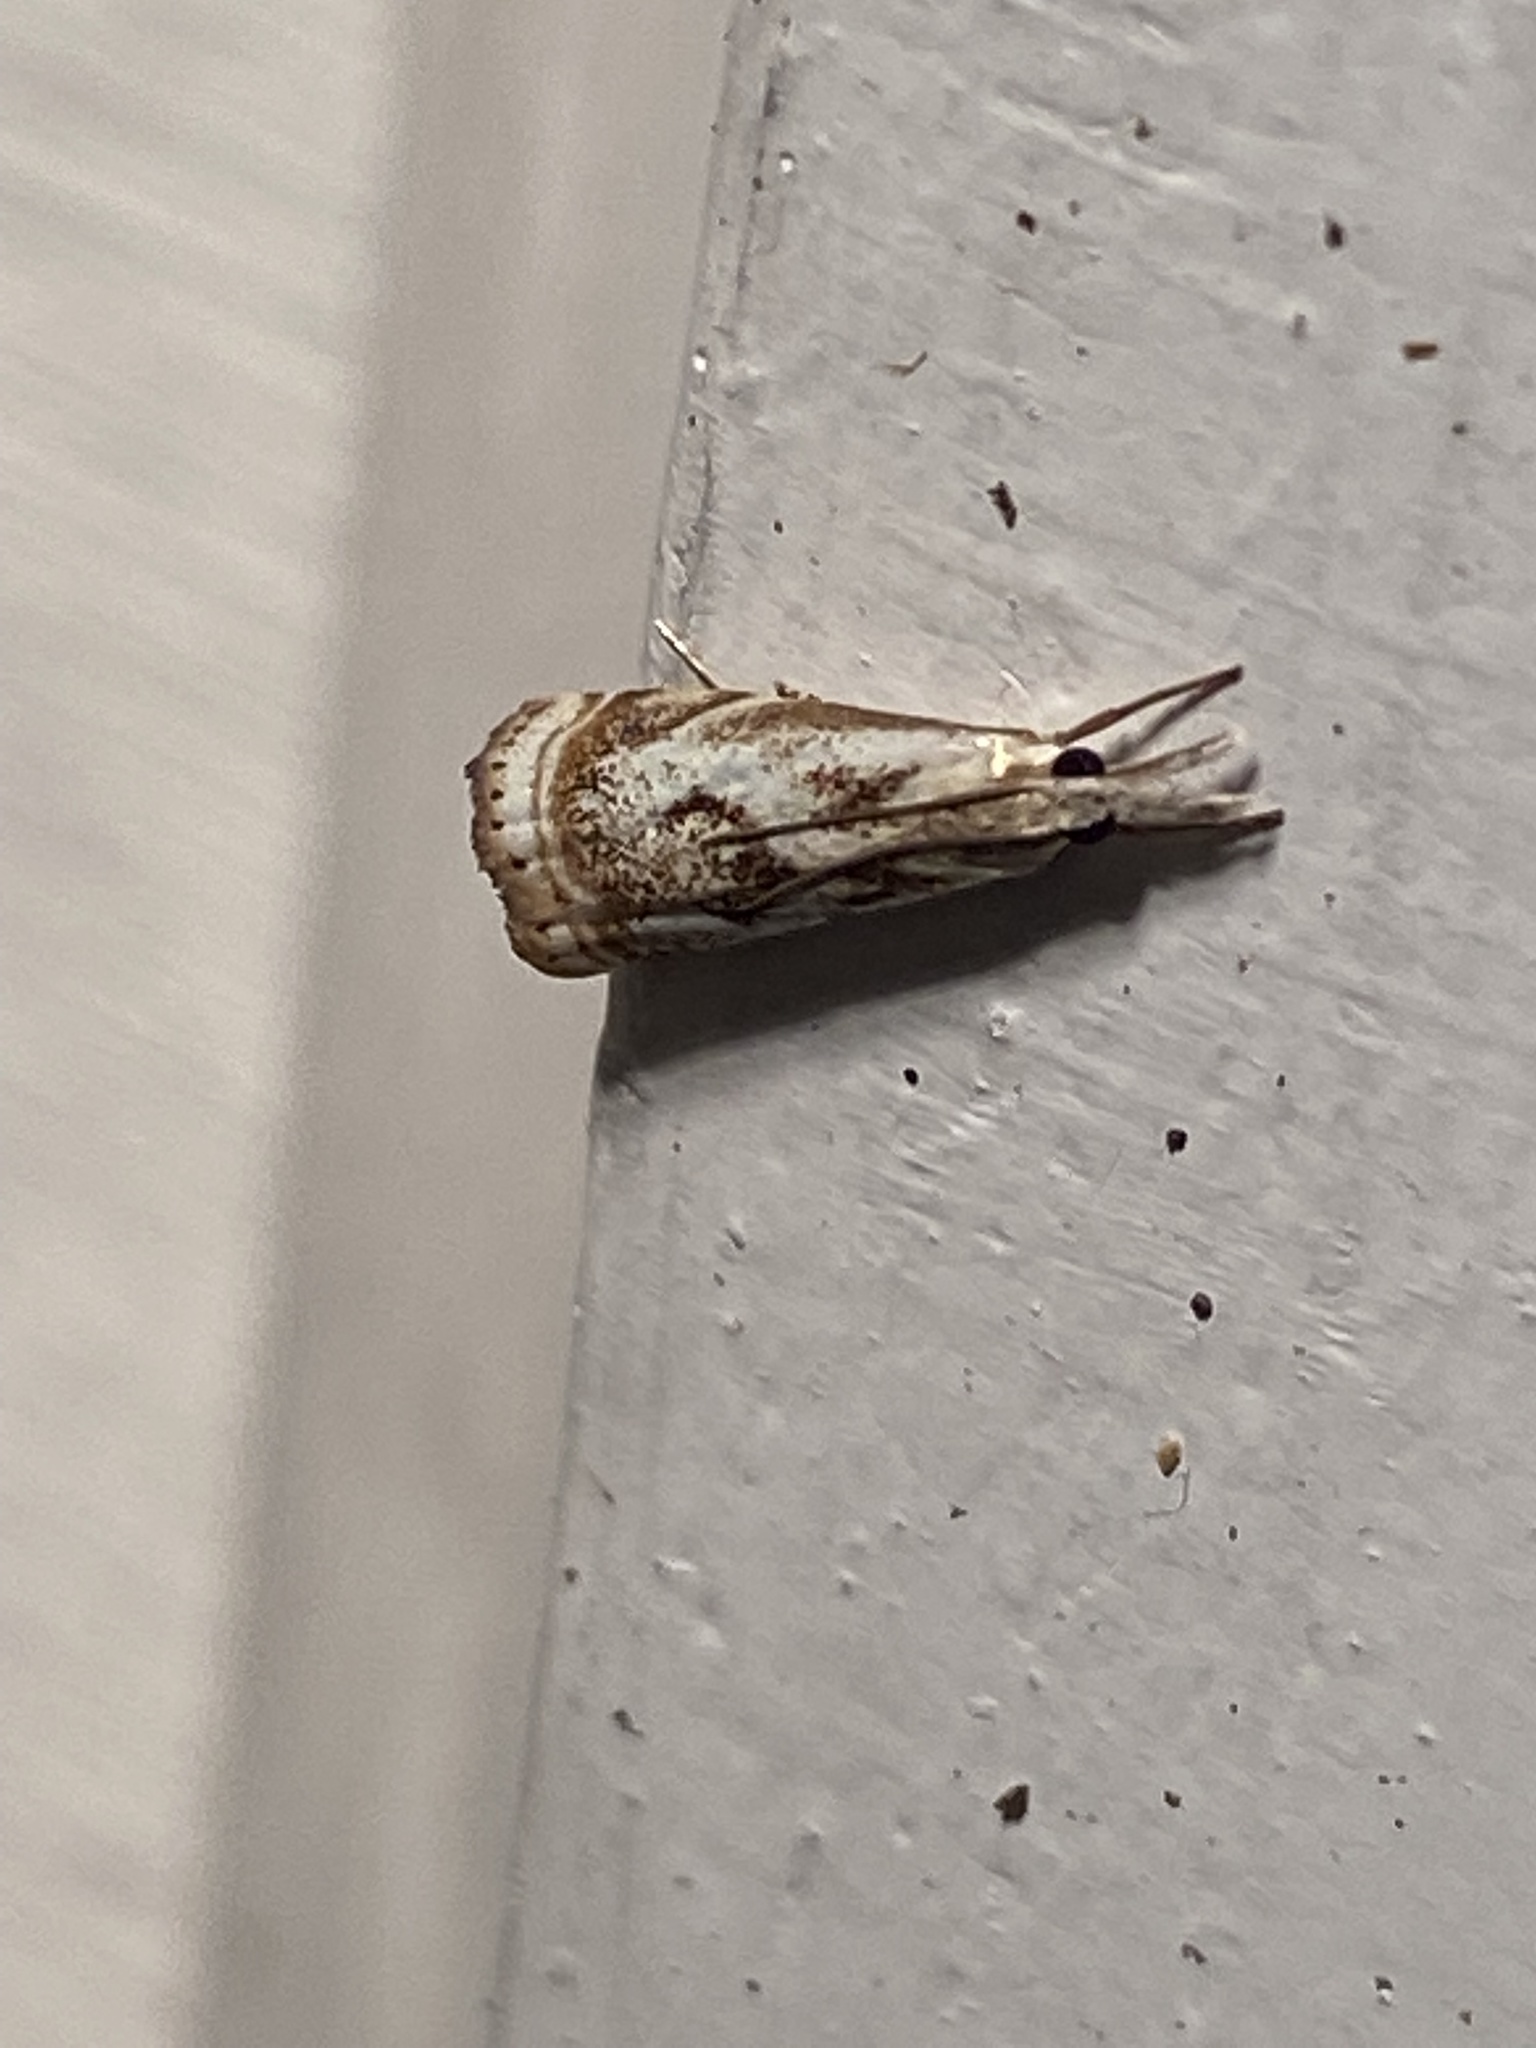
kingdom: Animalia
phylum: Arthropoda
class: Insecta
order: Lepidoptera
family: Crambidae
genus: Microcrambus
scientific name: Microcrambus elegans
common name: Elegant grass-veneer
